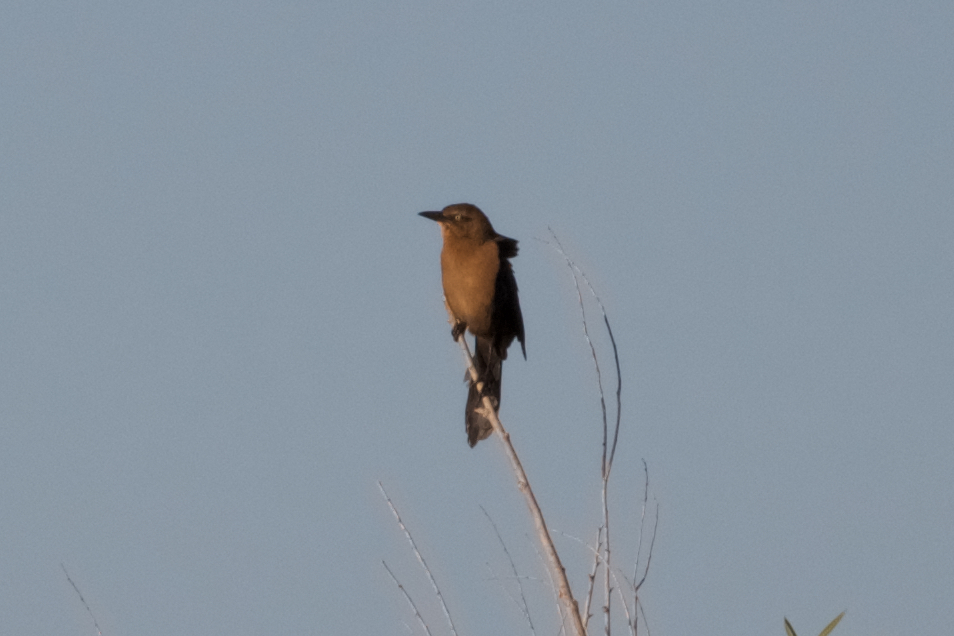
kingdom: Animalia
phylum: Chordata
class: Aves
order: Passeriformes
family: Icteridae
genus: Quiscalus
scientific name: Quiscalus mexicanus
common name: Great-tailed grackle
